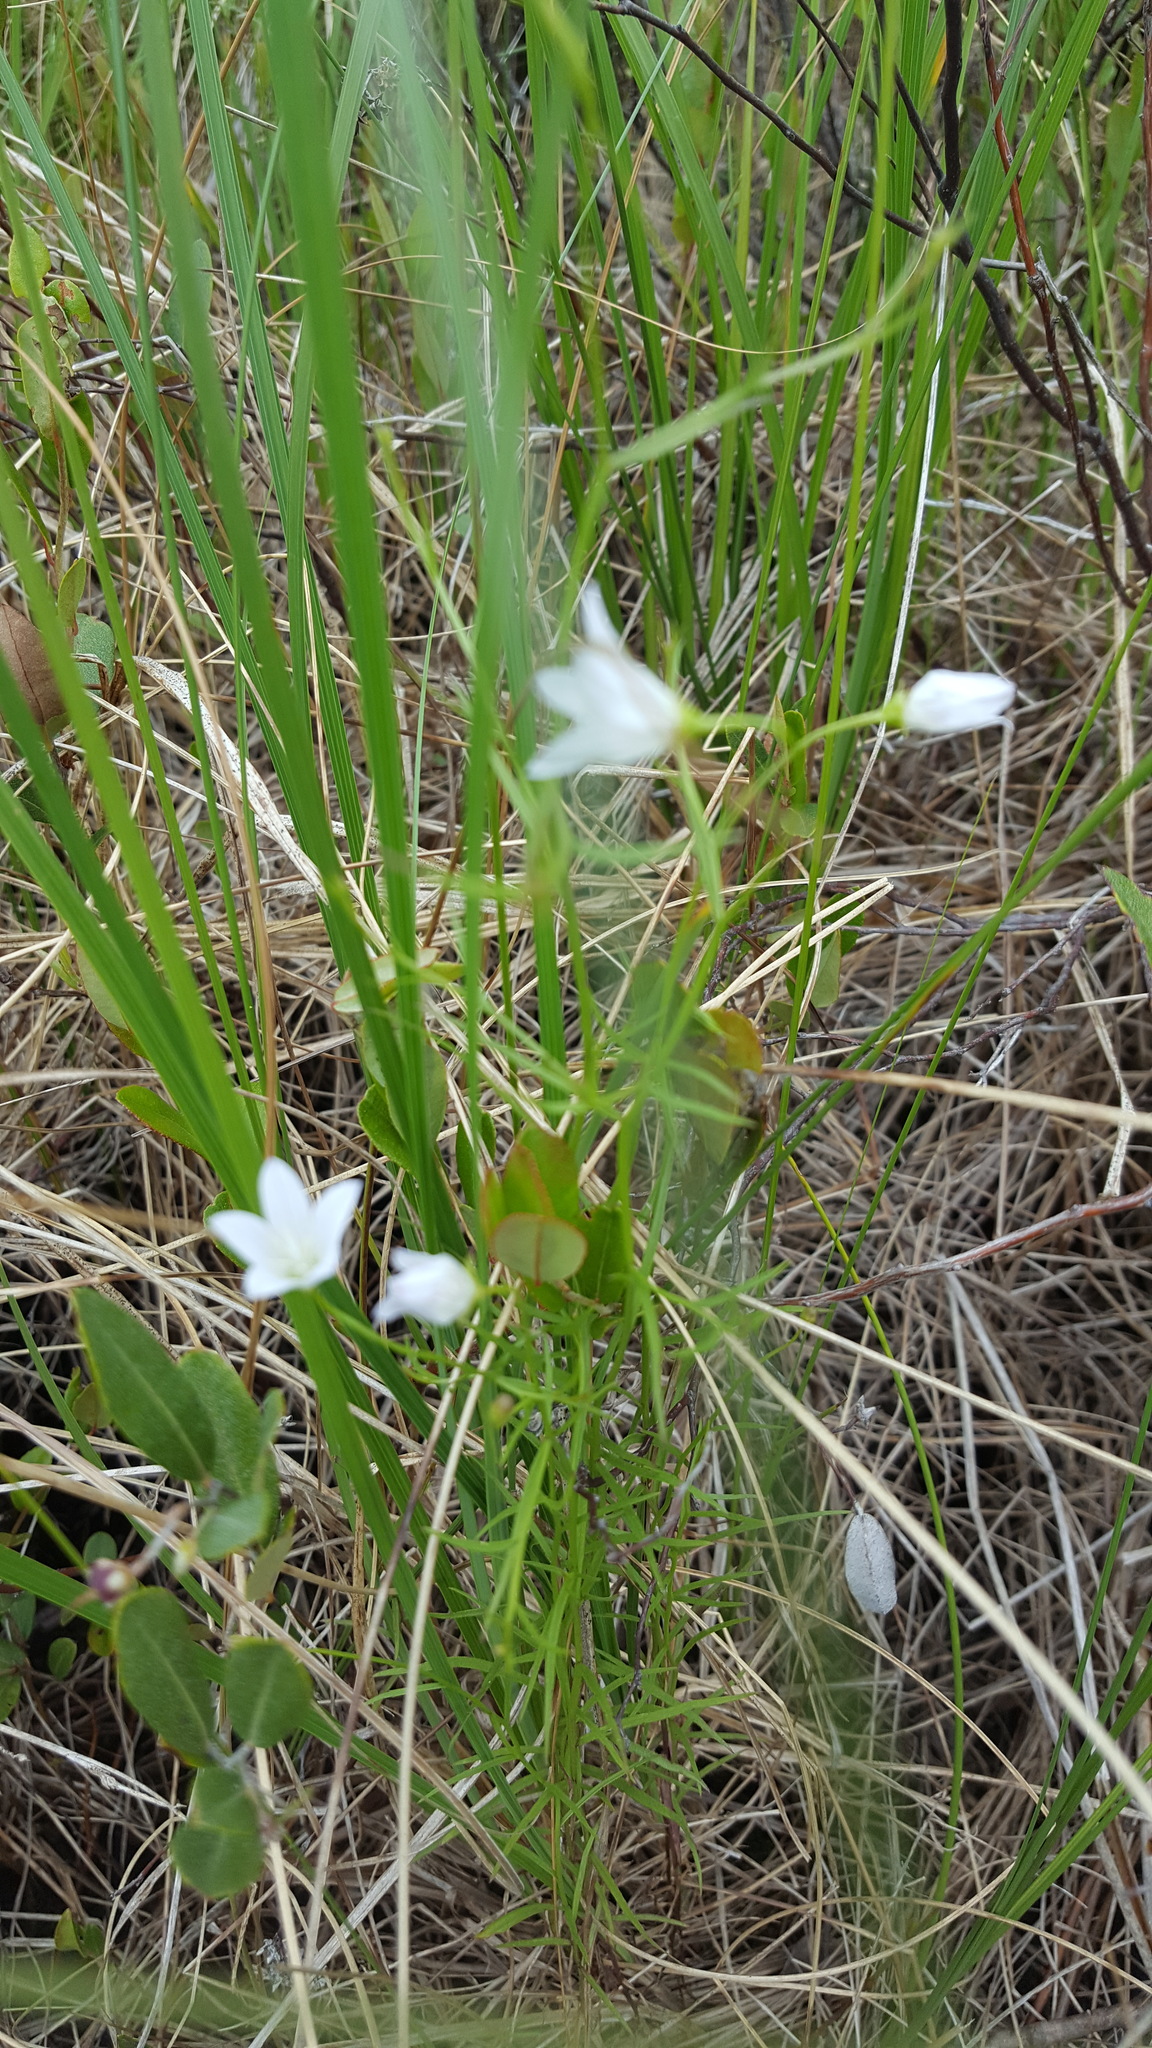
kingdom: Plantae
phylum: Tracheophyta
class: Magnoliopsida
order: Asterales
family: Campanulaceae
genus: Palustricodon
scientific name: Palustricodon aparinoides
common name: Bedstraw bellflower
